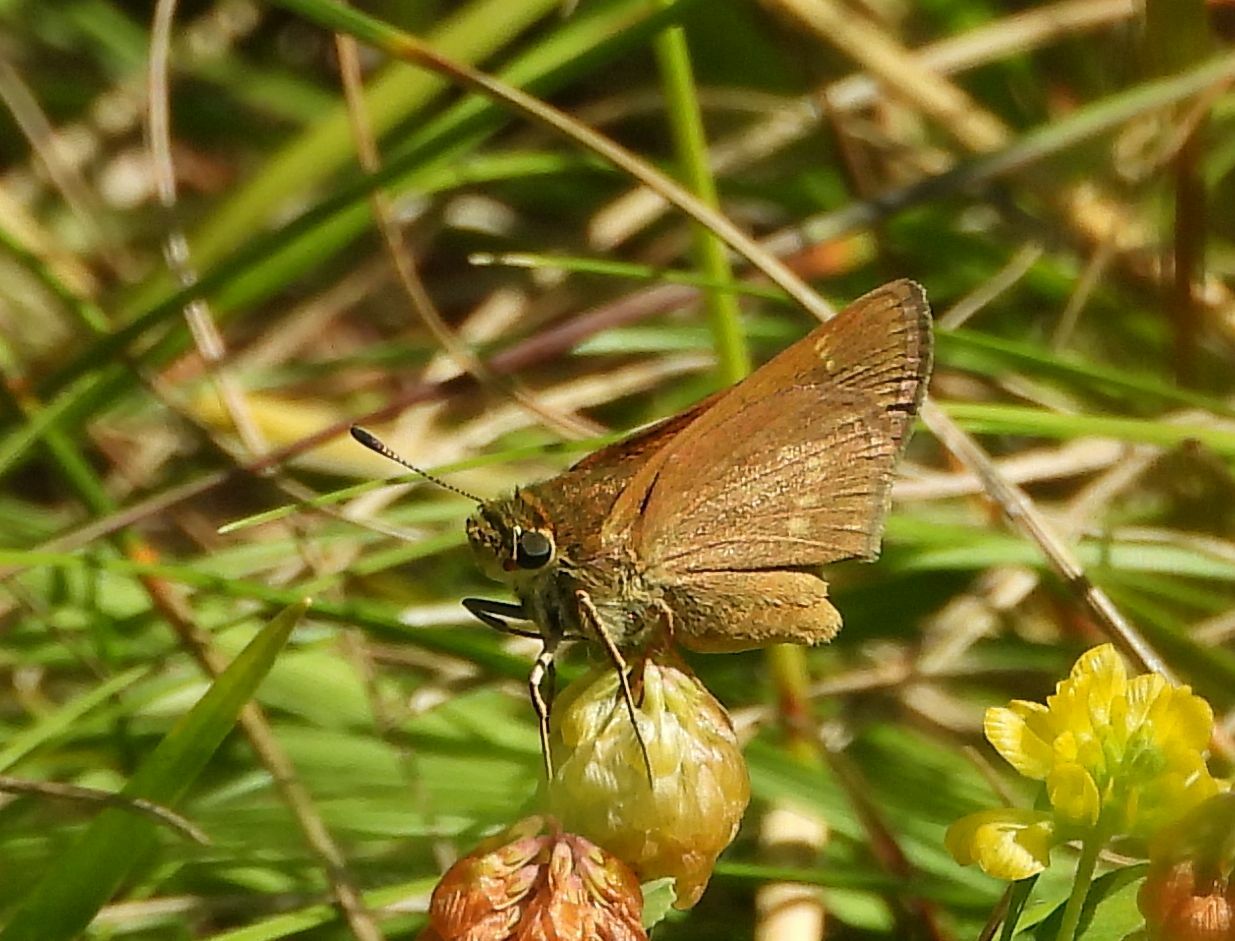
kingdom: Animalia
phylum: Arthropoda
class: Insecta
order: Lepidoptera
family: Hesperiidae
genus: Polites
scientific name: Polites origenes
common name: Crossline skipper
